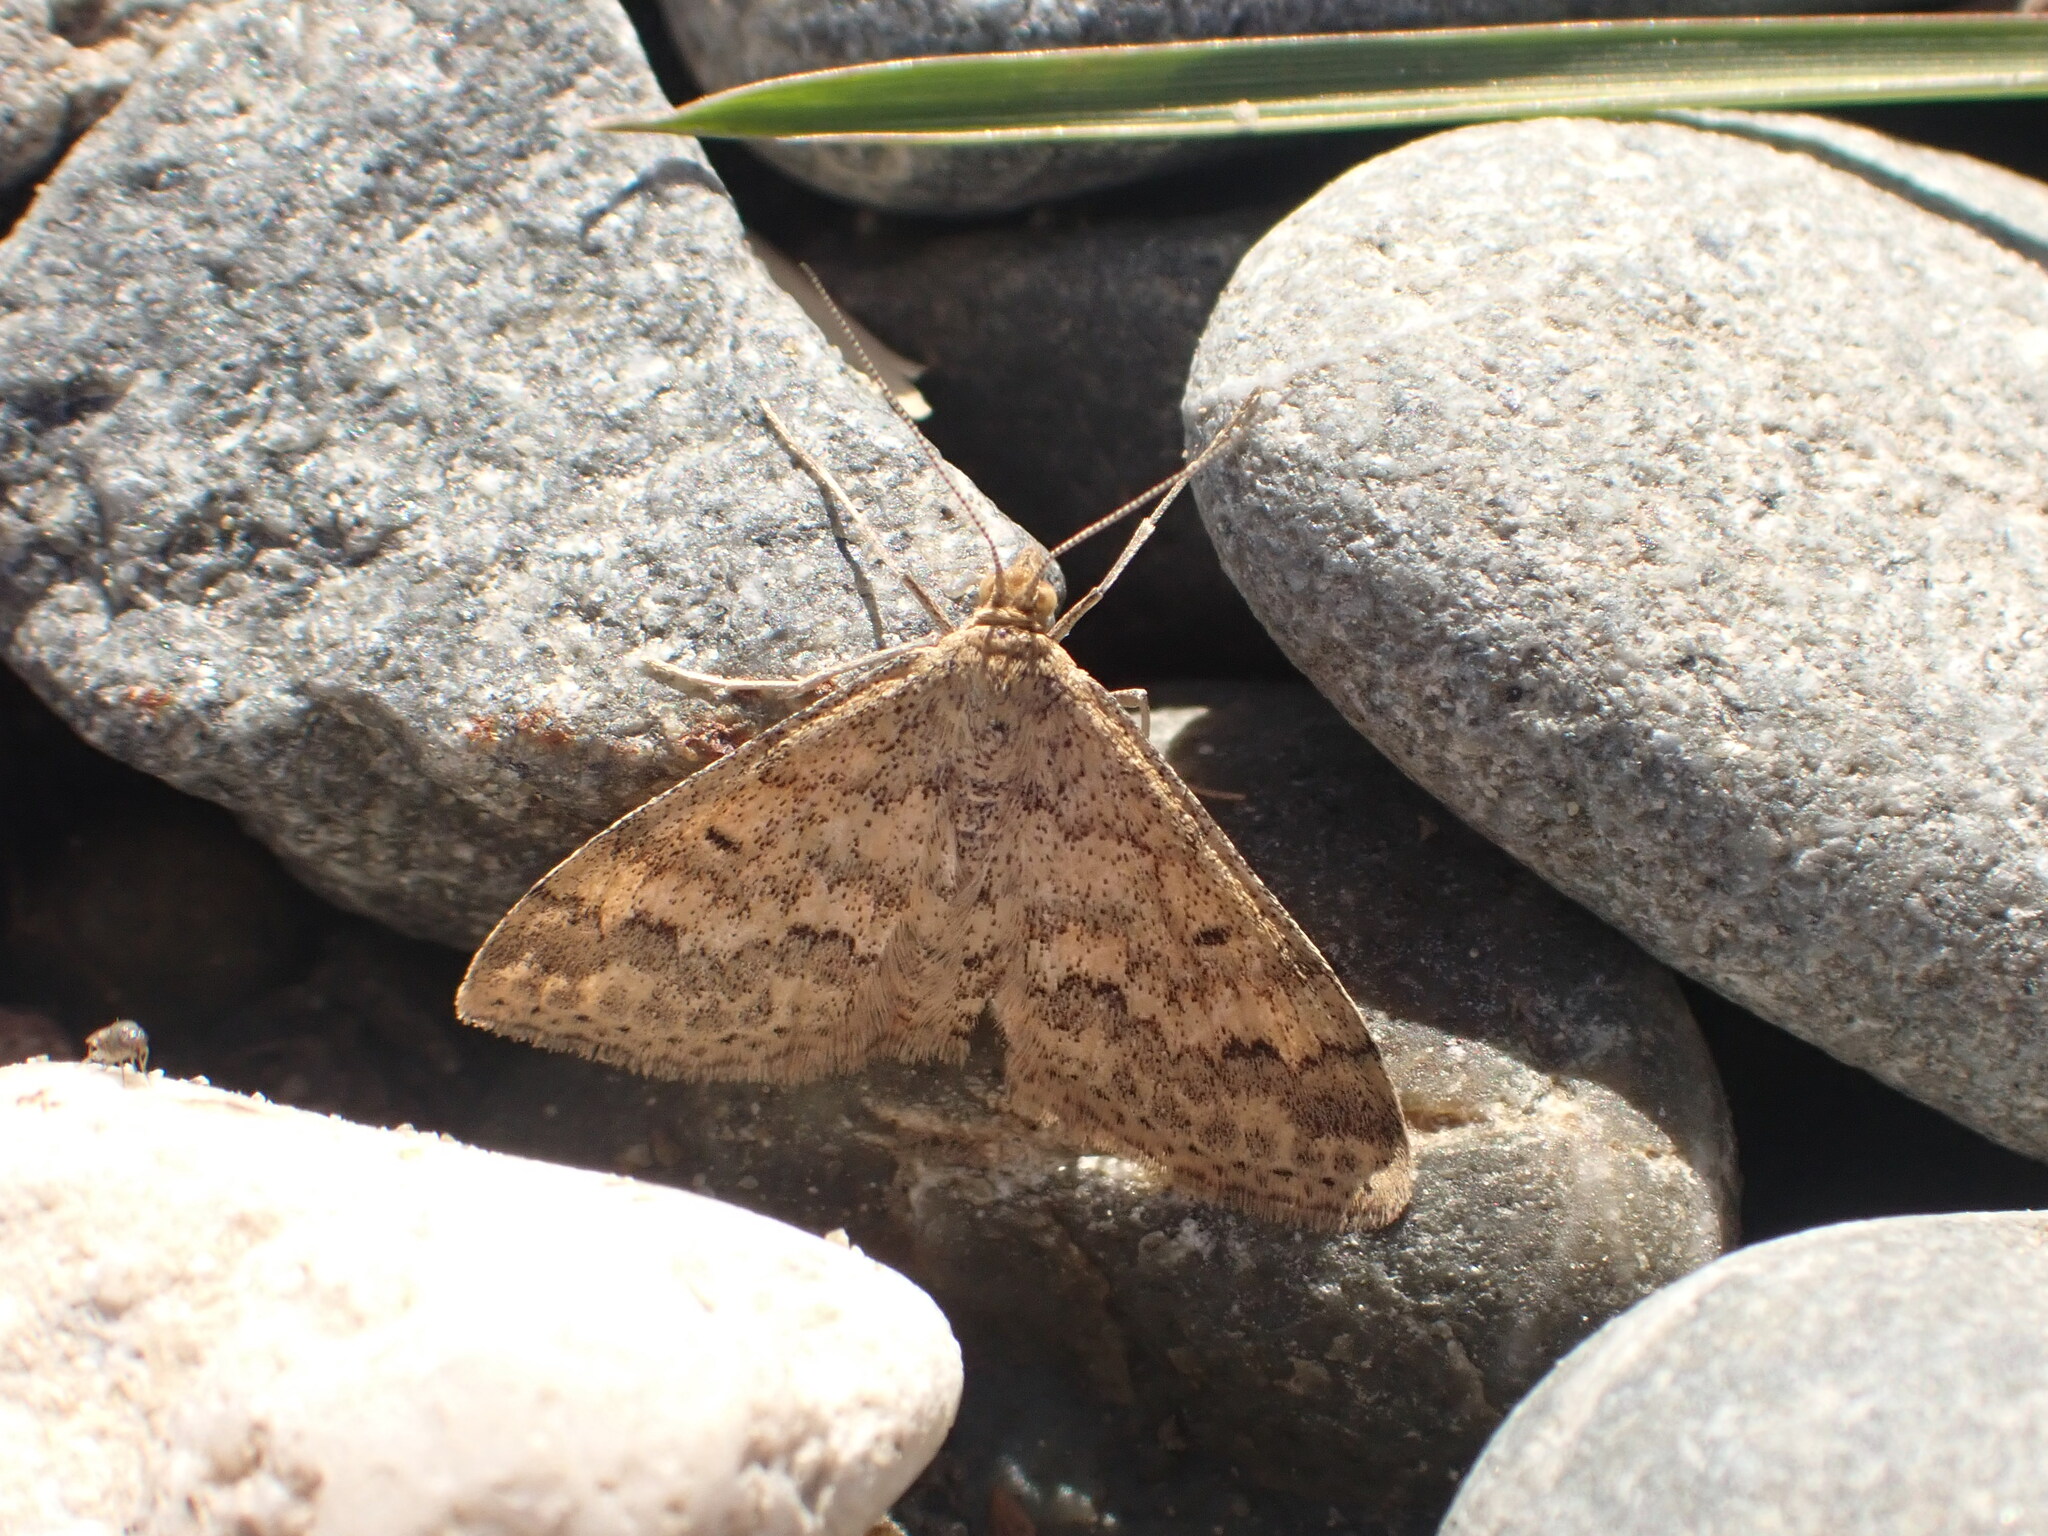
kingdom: Animalia
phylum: Arthropoda
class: Insecta
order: Lepidoptera
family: Geometridae
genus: Scopula
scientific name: Scopula rubraria
